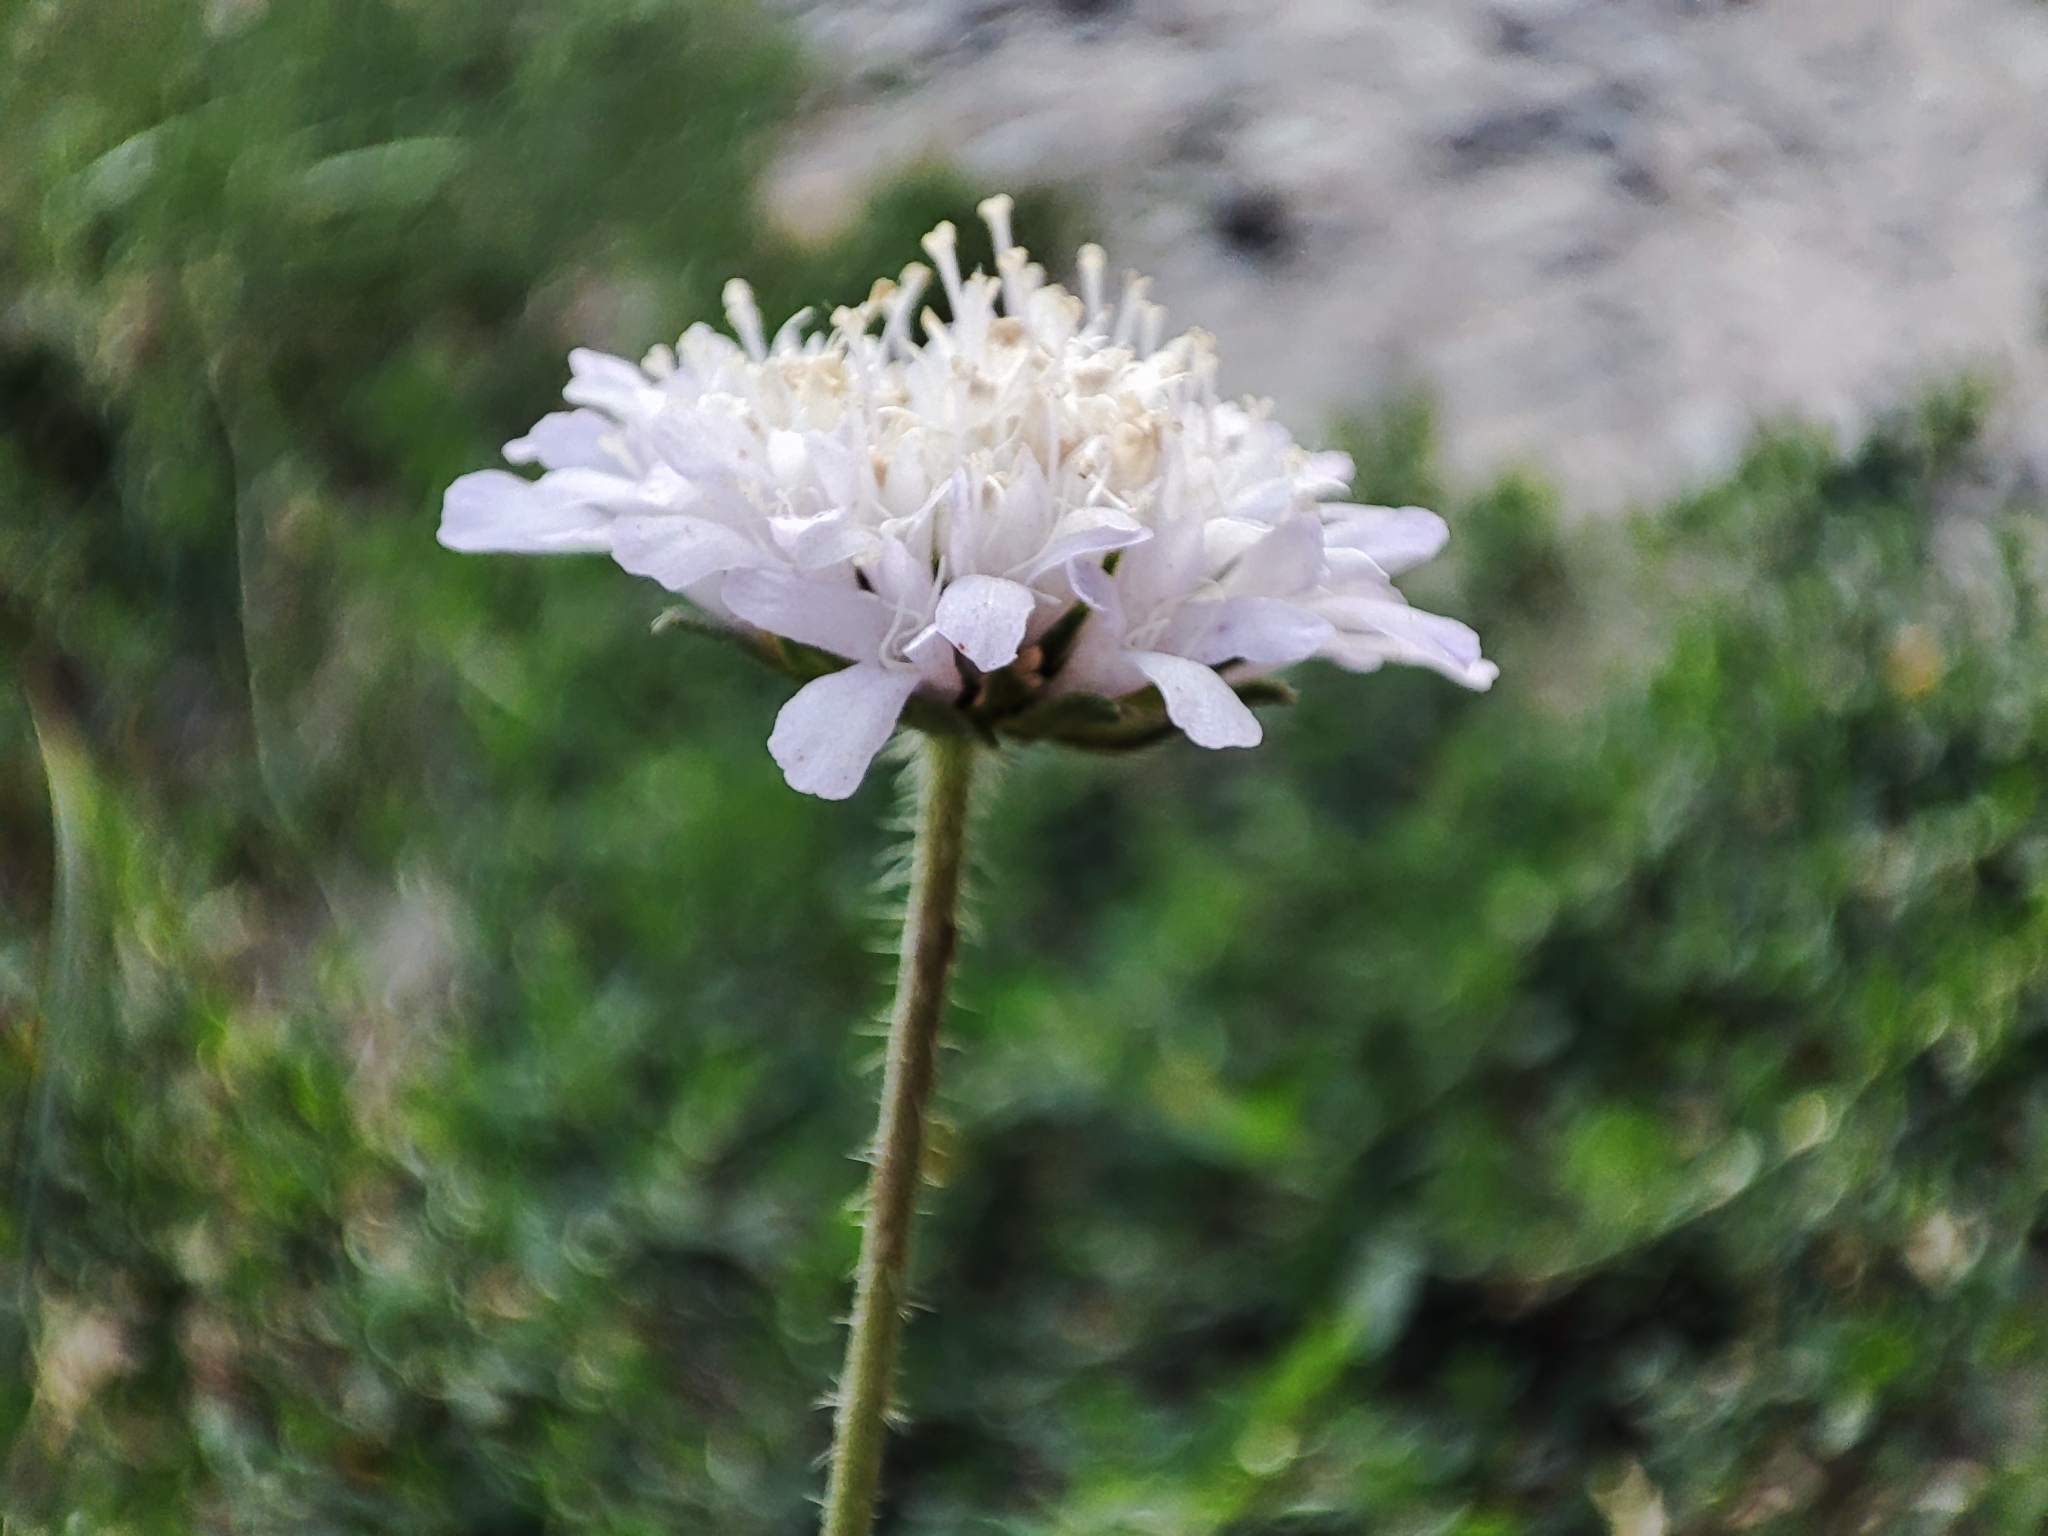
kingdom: Plantae
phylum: Tracheophyta
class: Magnoliopsida
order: Dipsacales
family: Caprifoliaceae
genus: Knautia
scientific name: Knautia arvensis
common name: Field scabiosa
